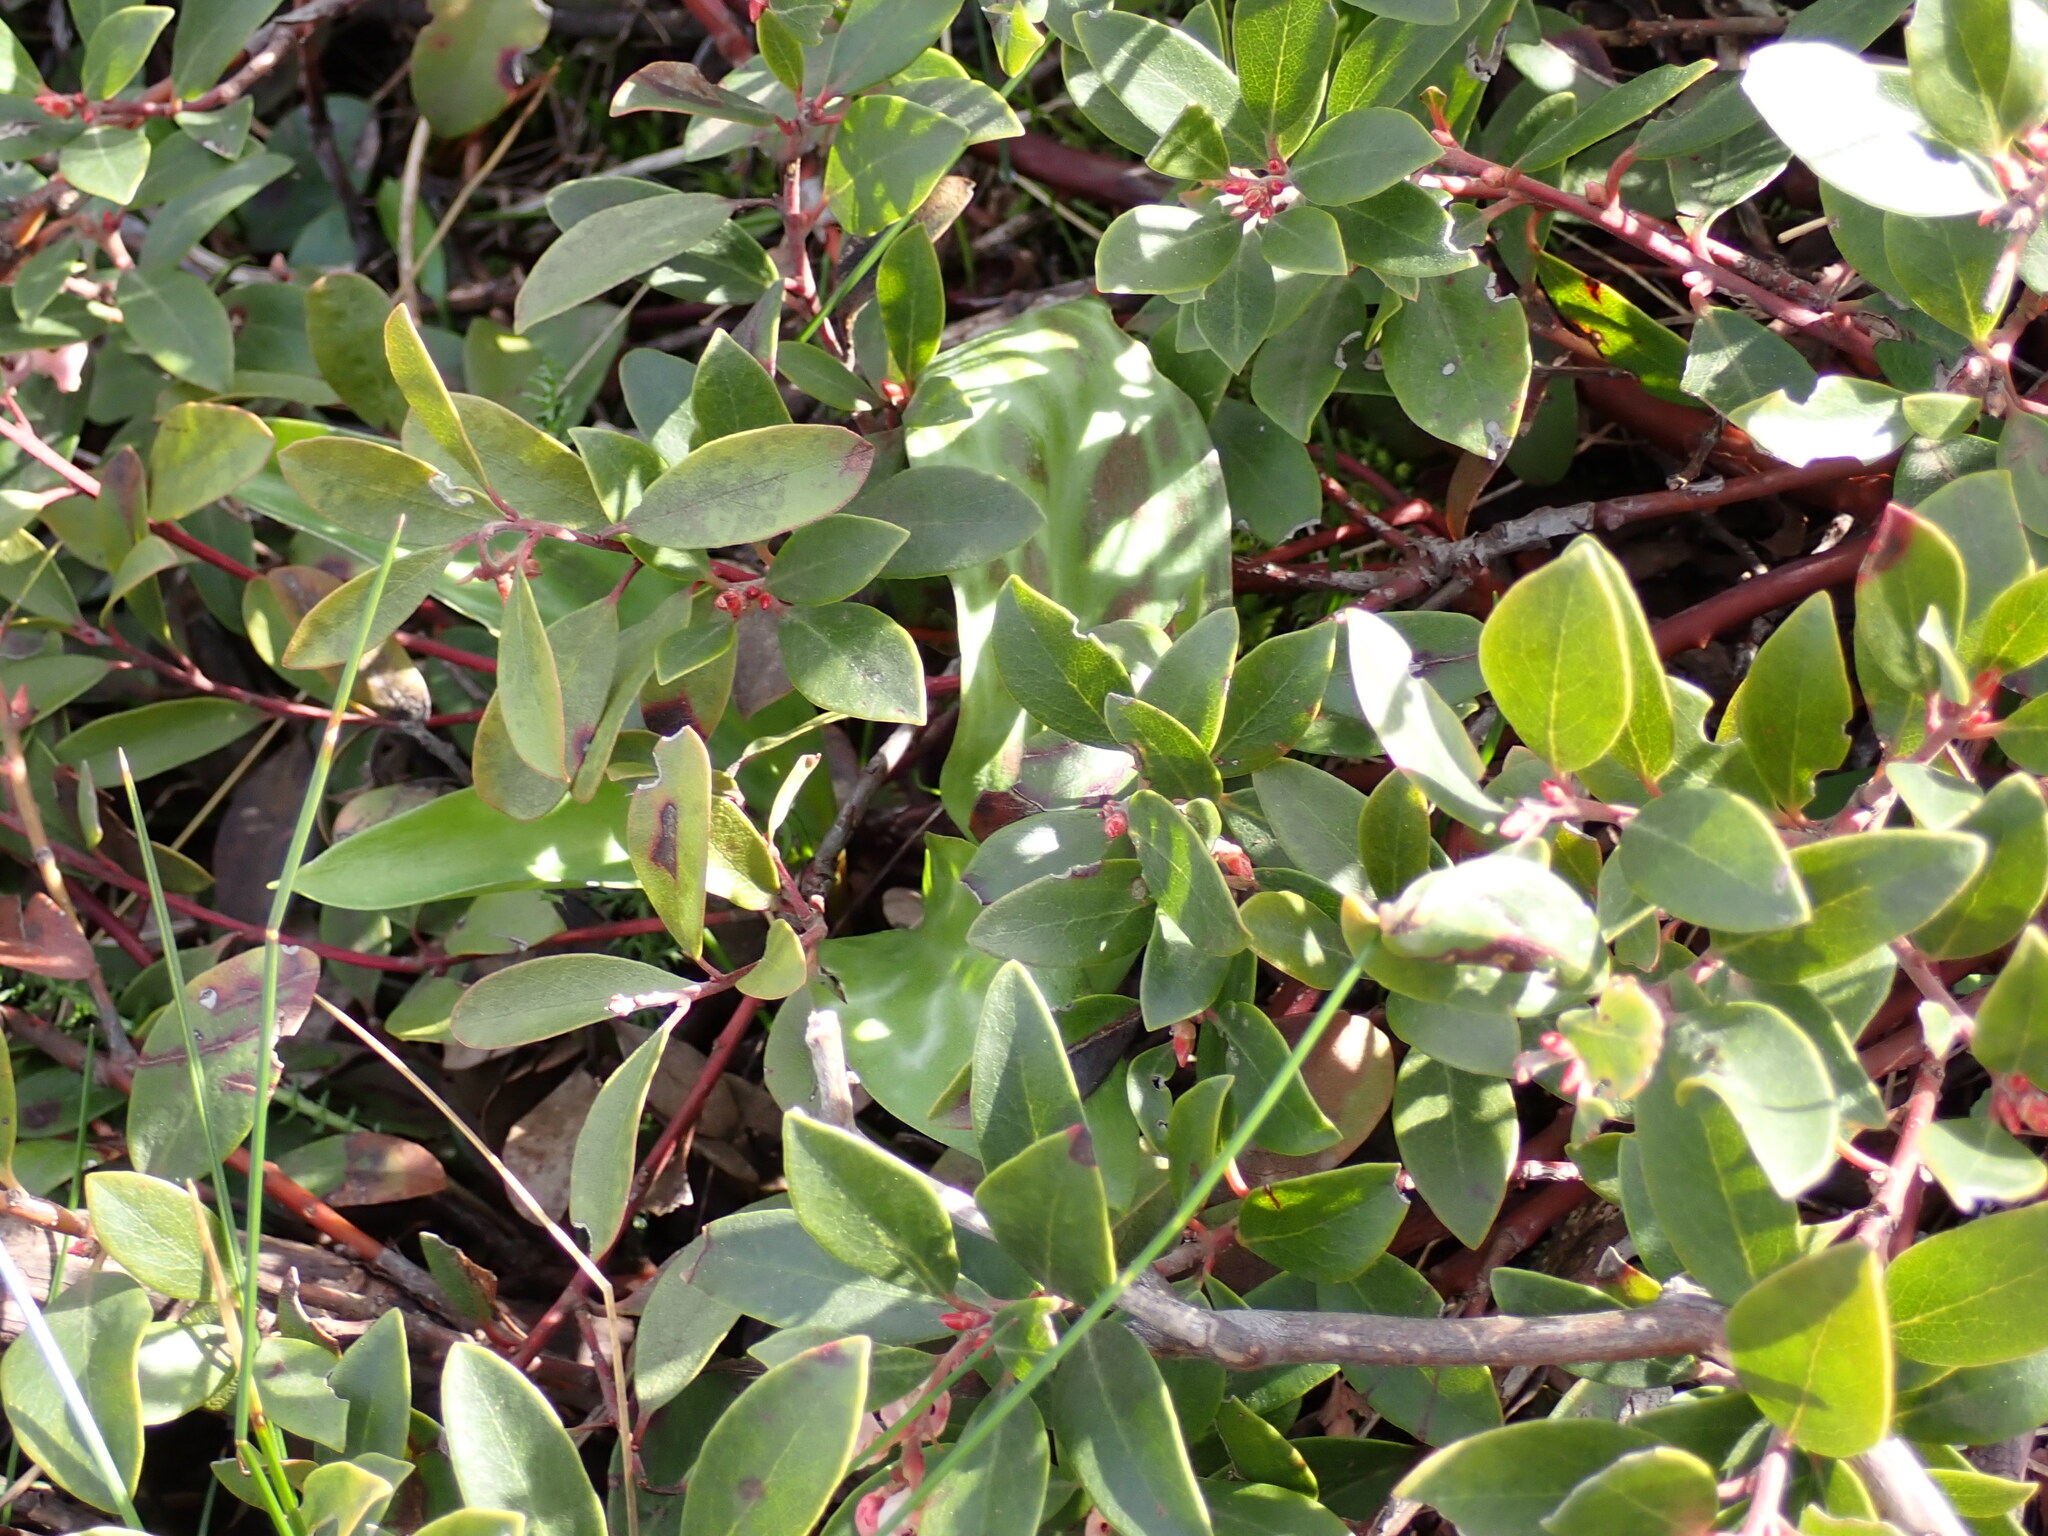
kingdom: Plantae
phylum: Tracheophyta
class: Magnoliopsida
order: Ericales
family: Ericaceae
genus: Arctostaphylos
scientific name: Arctostaphylos media
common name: Hybrid manzanita
